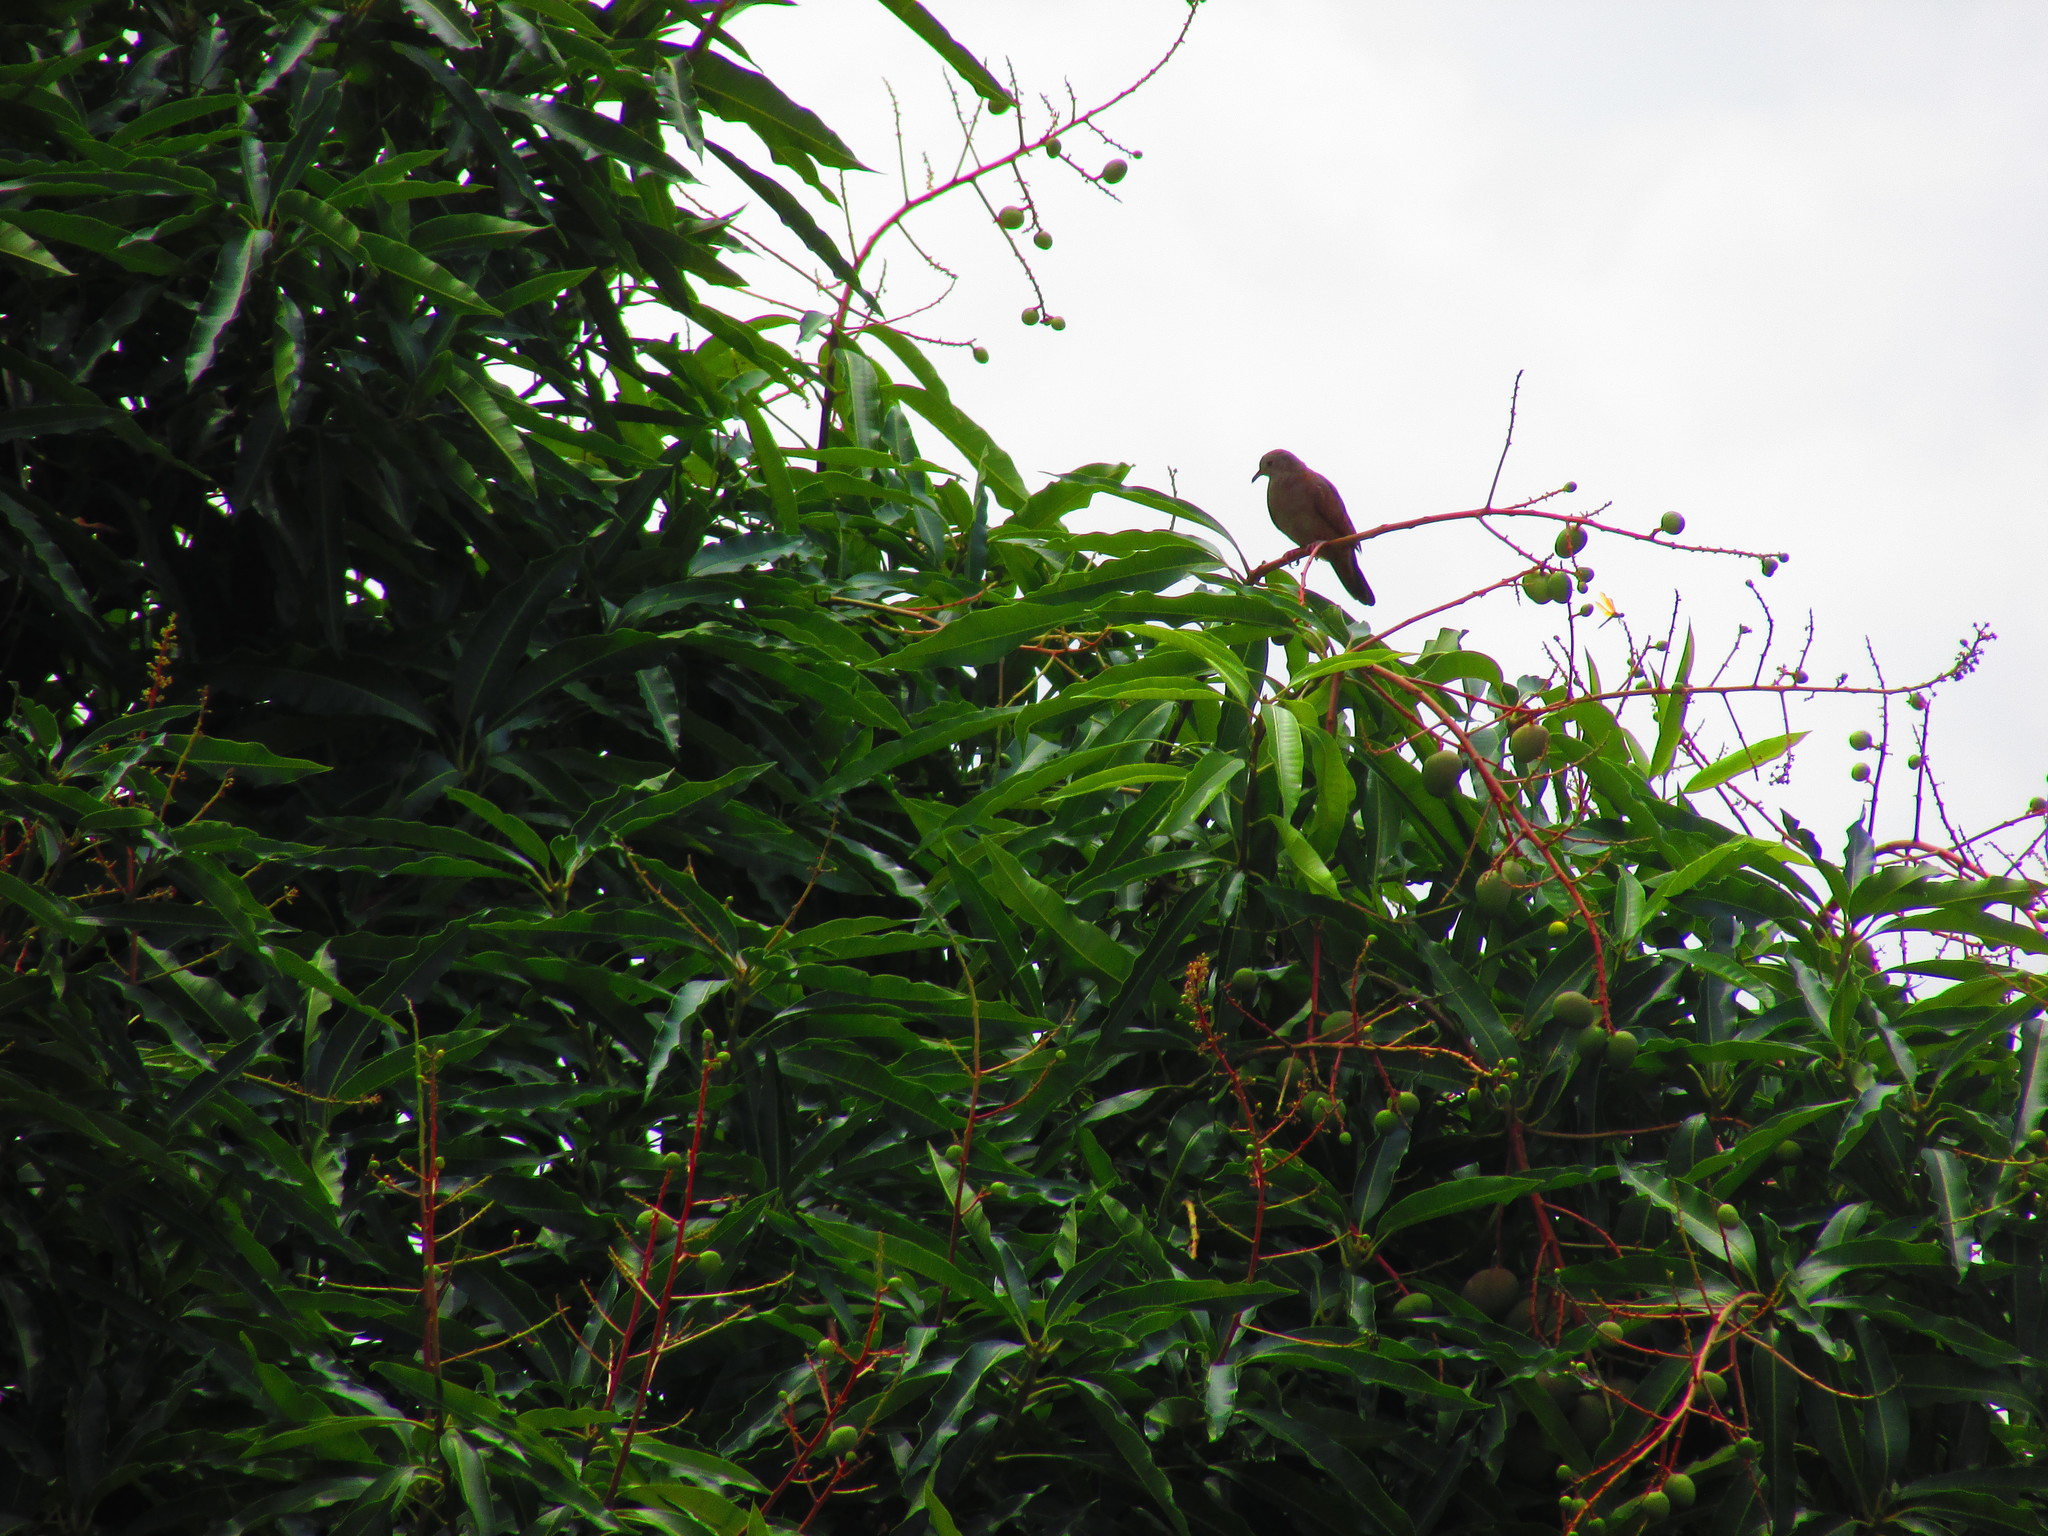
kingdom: Animalia
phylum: Chordata
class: Aves
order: Columbiformes
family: Columbidae
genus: Columbina
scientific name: Columbina talpacoti
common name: Ruddy ground dove
